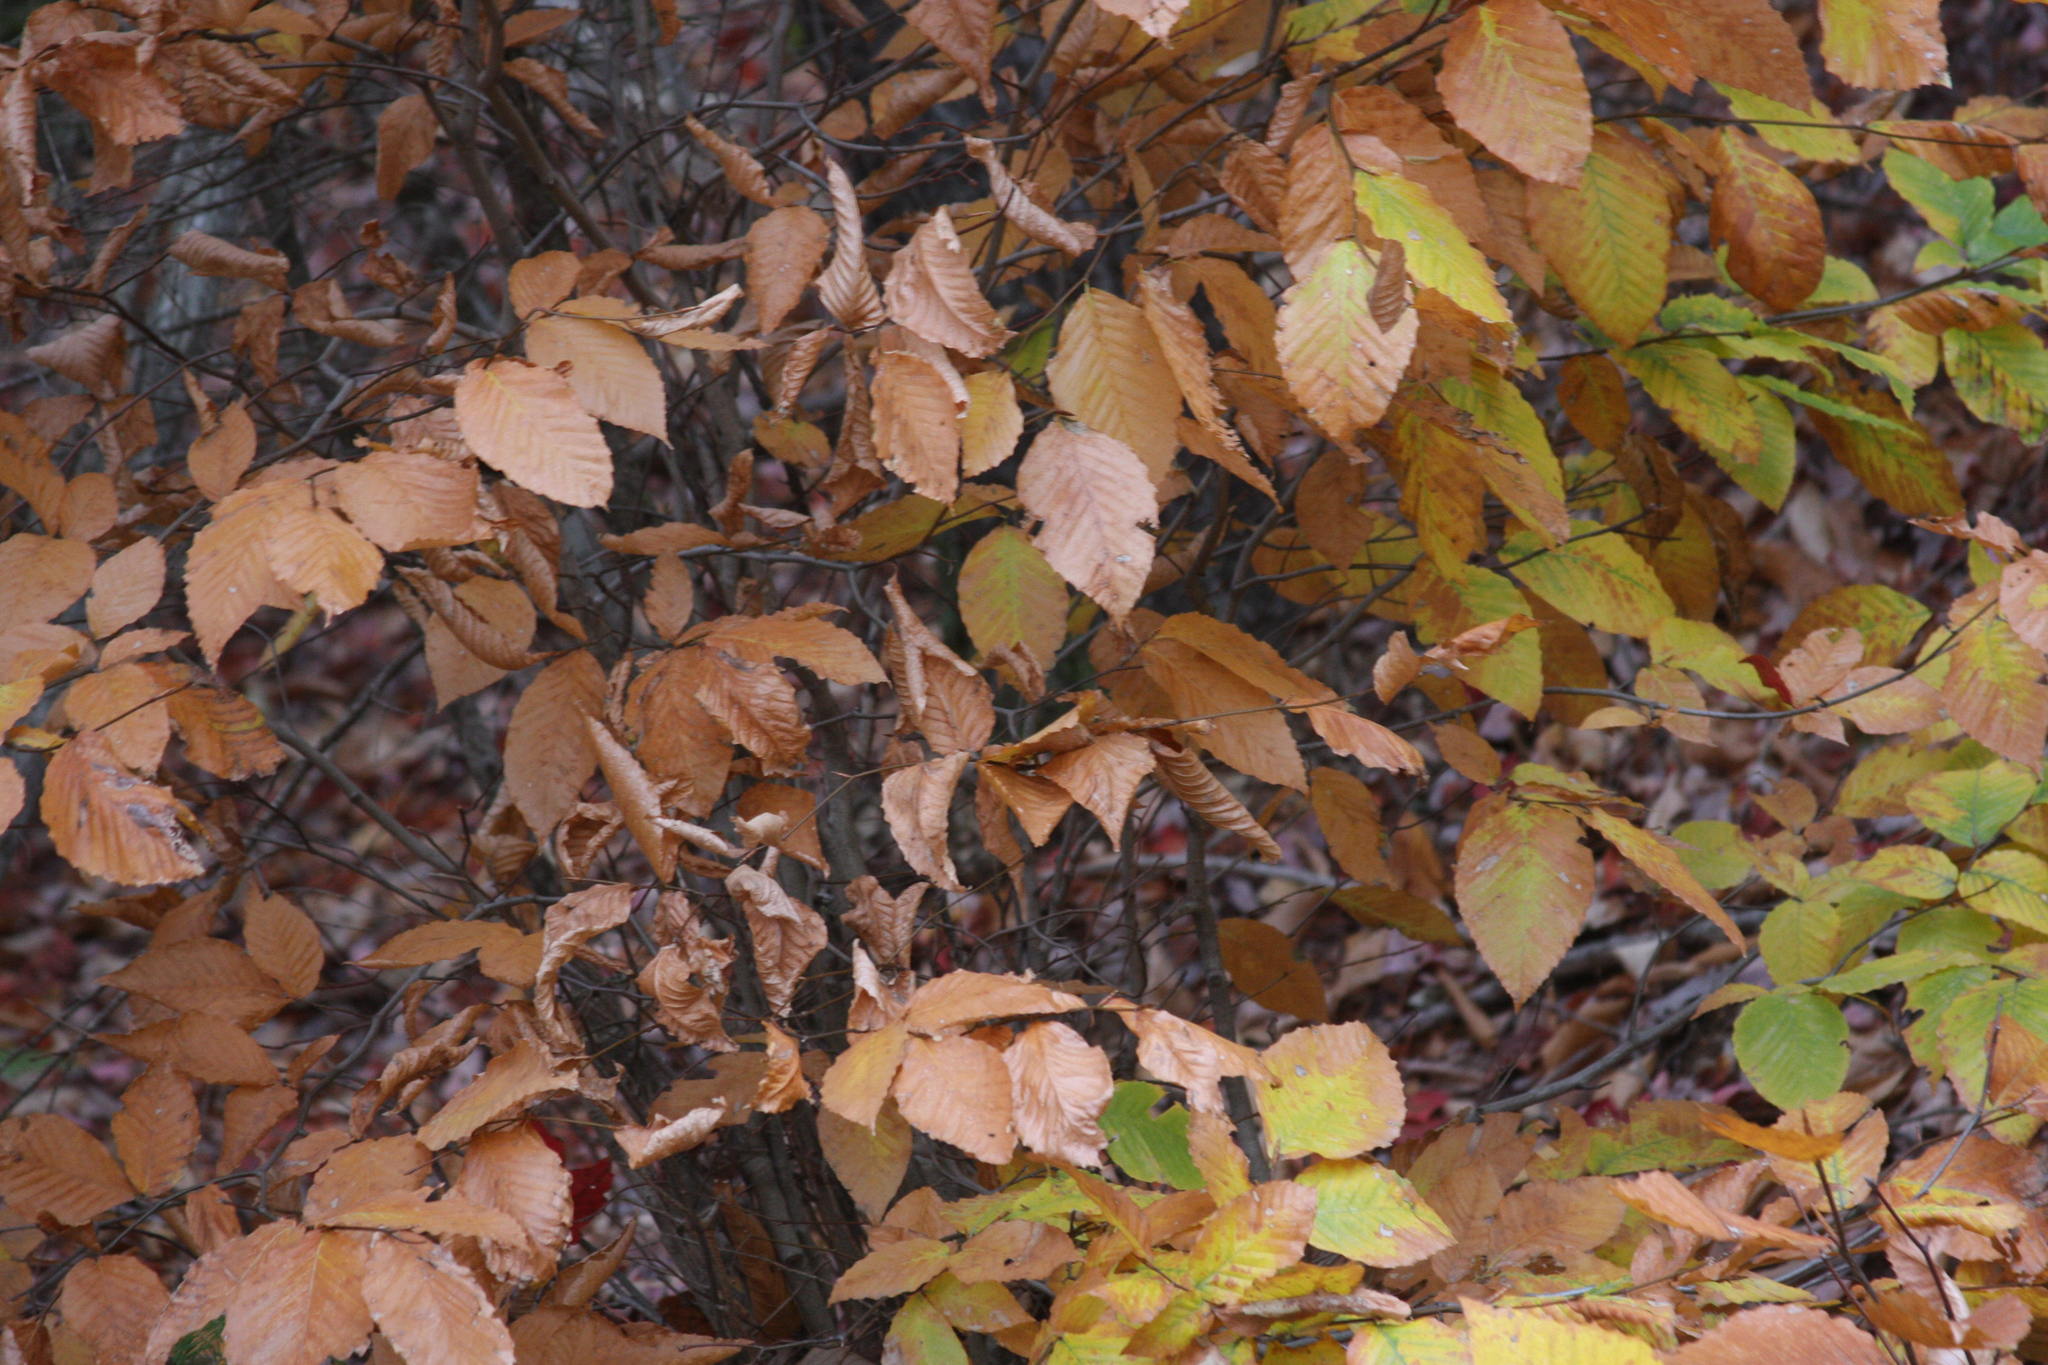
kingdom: Plantae
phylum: Tracheophyta
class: Magnoliopsida
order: Fagales
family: Fagaceae
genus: Fagus
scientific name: Fagus grandifolia
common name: American beech
